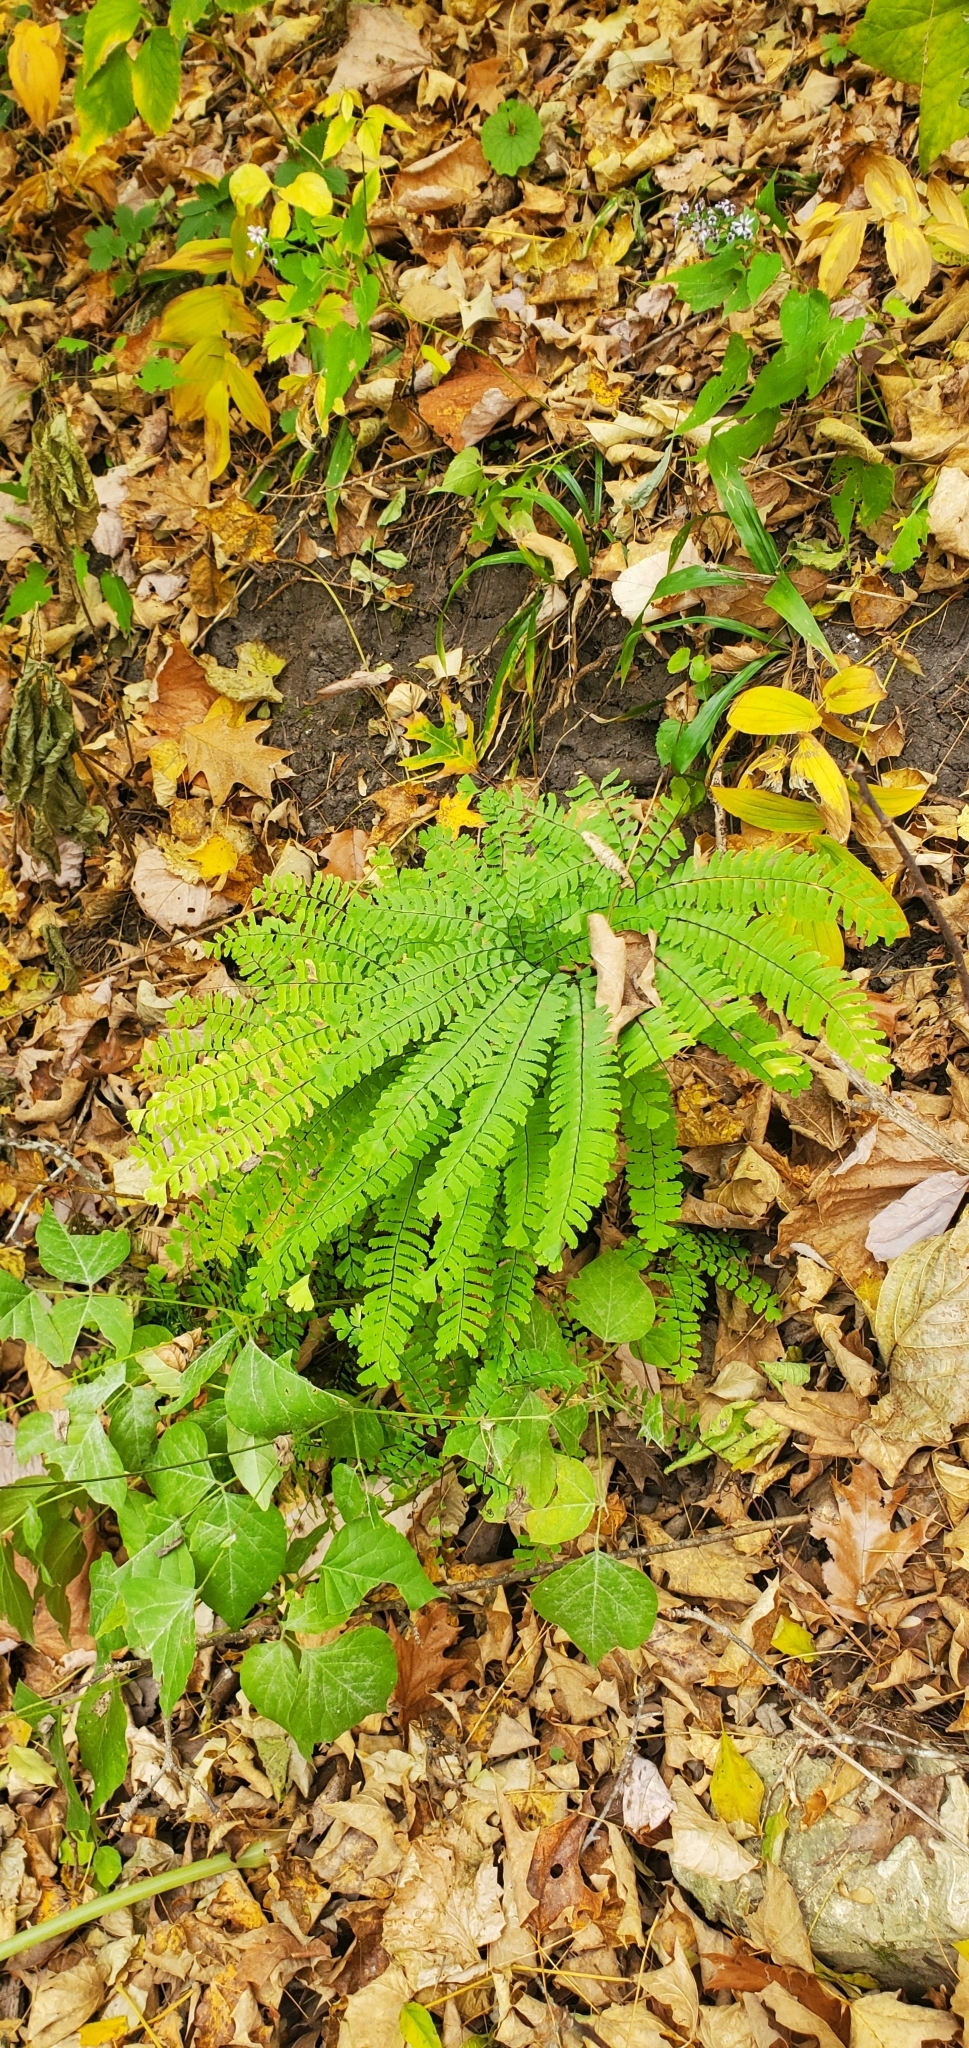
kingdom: Plantae
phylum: Tracheophyta
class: Polypodiopsida
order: Polypodiales
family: Pteridaceae
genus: Adiantum
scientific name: Adiantum pedatum
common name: Five-finger fern
